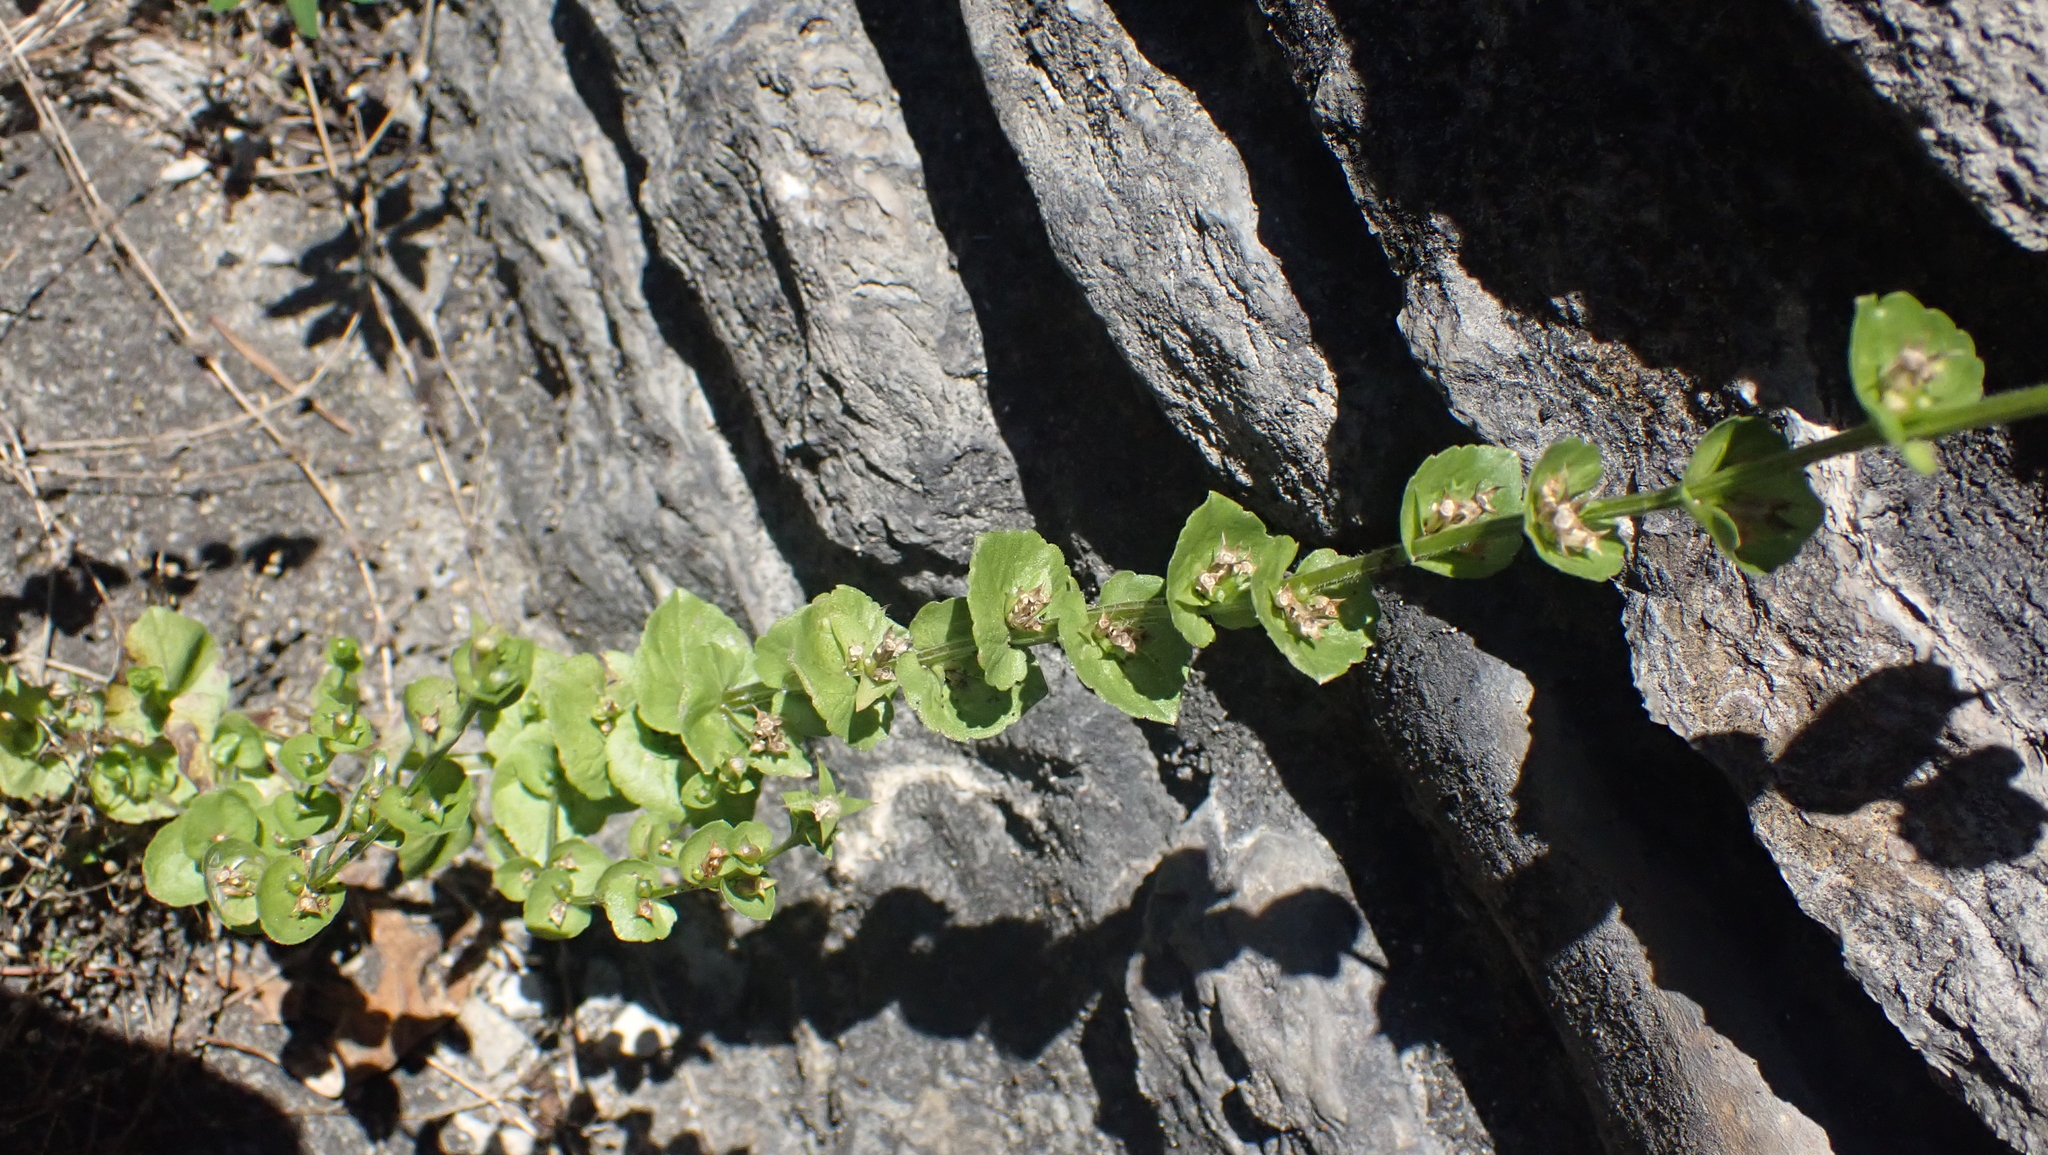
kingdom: Plantae
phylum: Tracheophyta
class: Magnoliopsida
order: Asterales
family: Campanulaceae
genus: Triodanis
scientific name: Triodanis perfoliata
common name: Clasping venus' looking-glass
